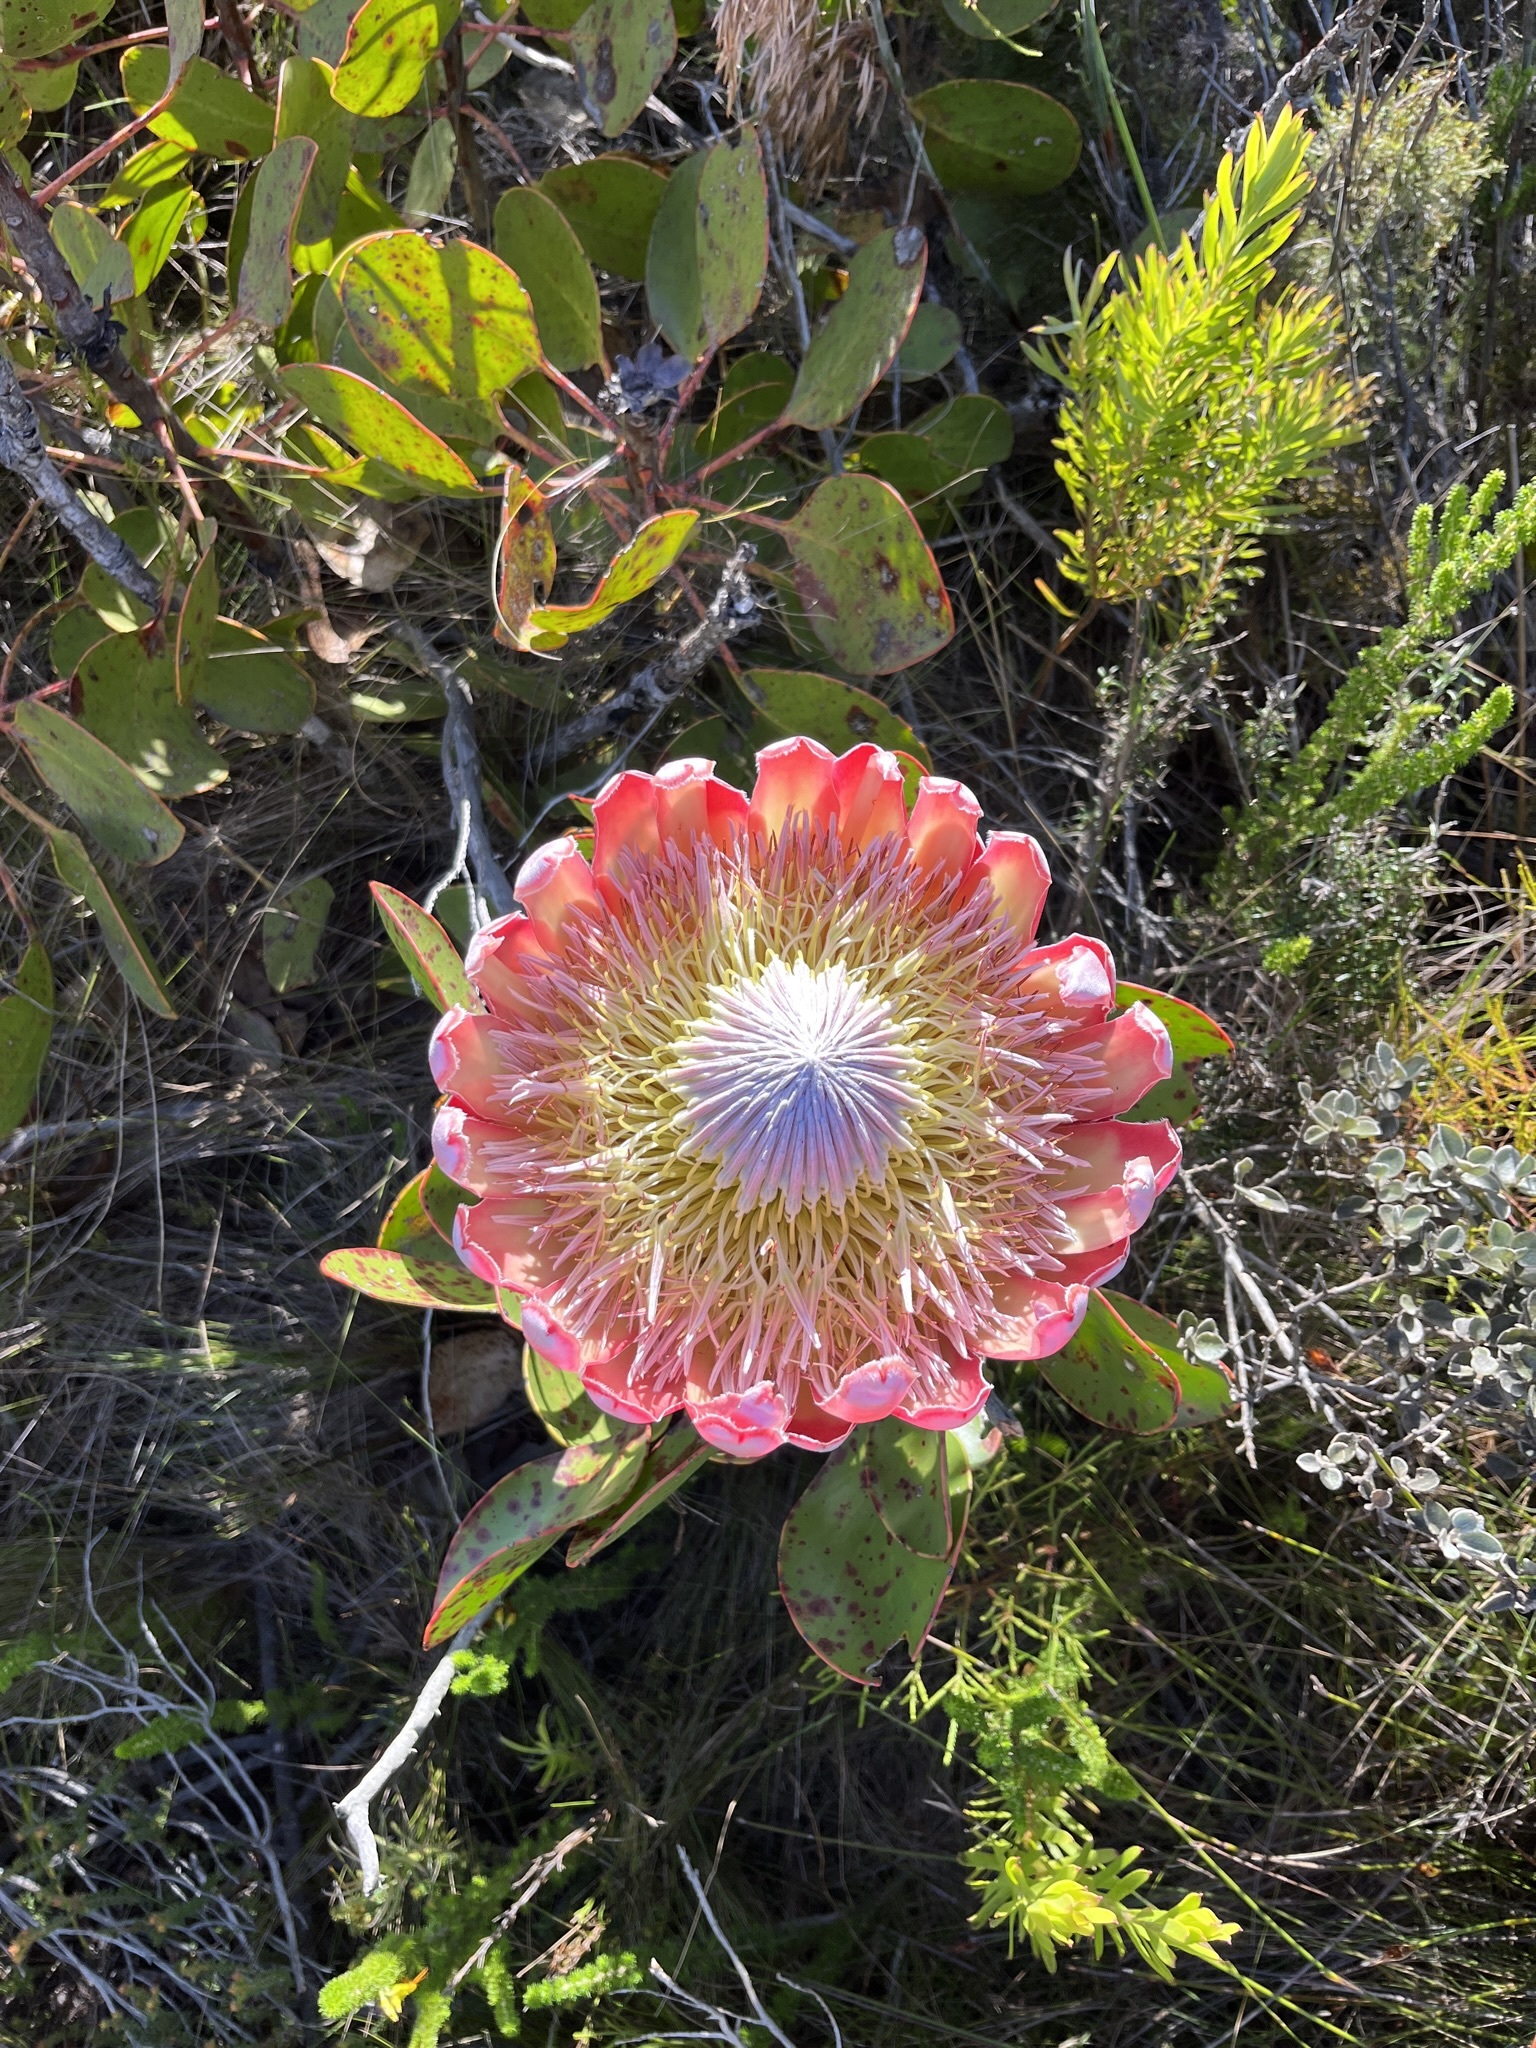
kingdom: Plantae
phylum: Tracheophyta
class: Magnoliopsida
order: Proteales
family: Proteaceae
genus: Protea
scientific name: Protea cynaroides
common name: King protea
